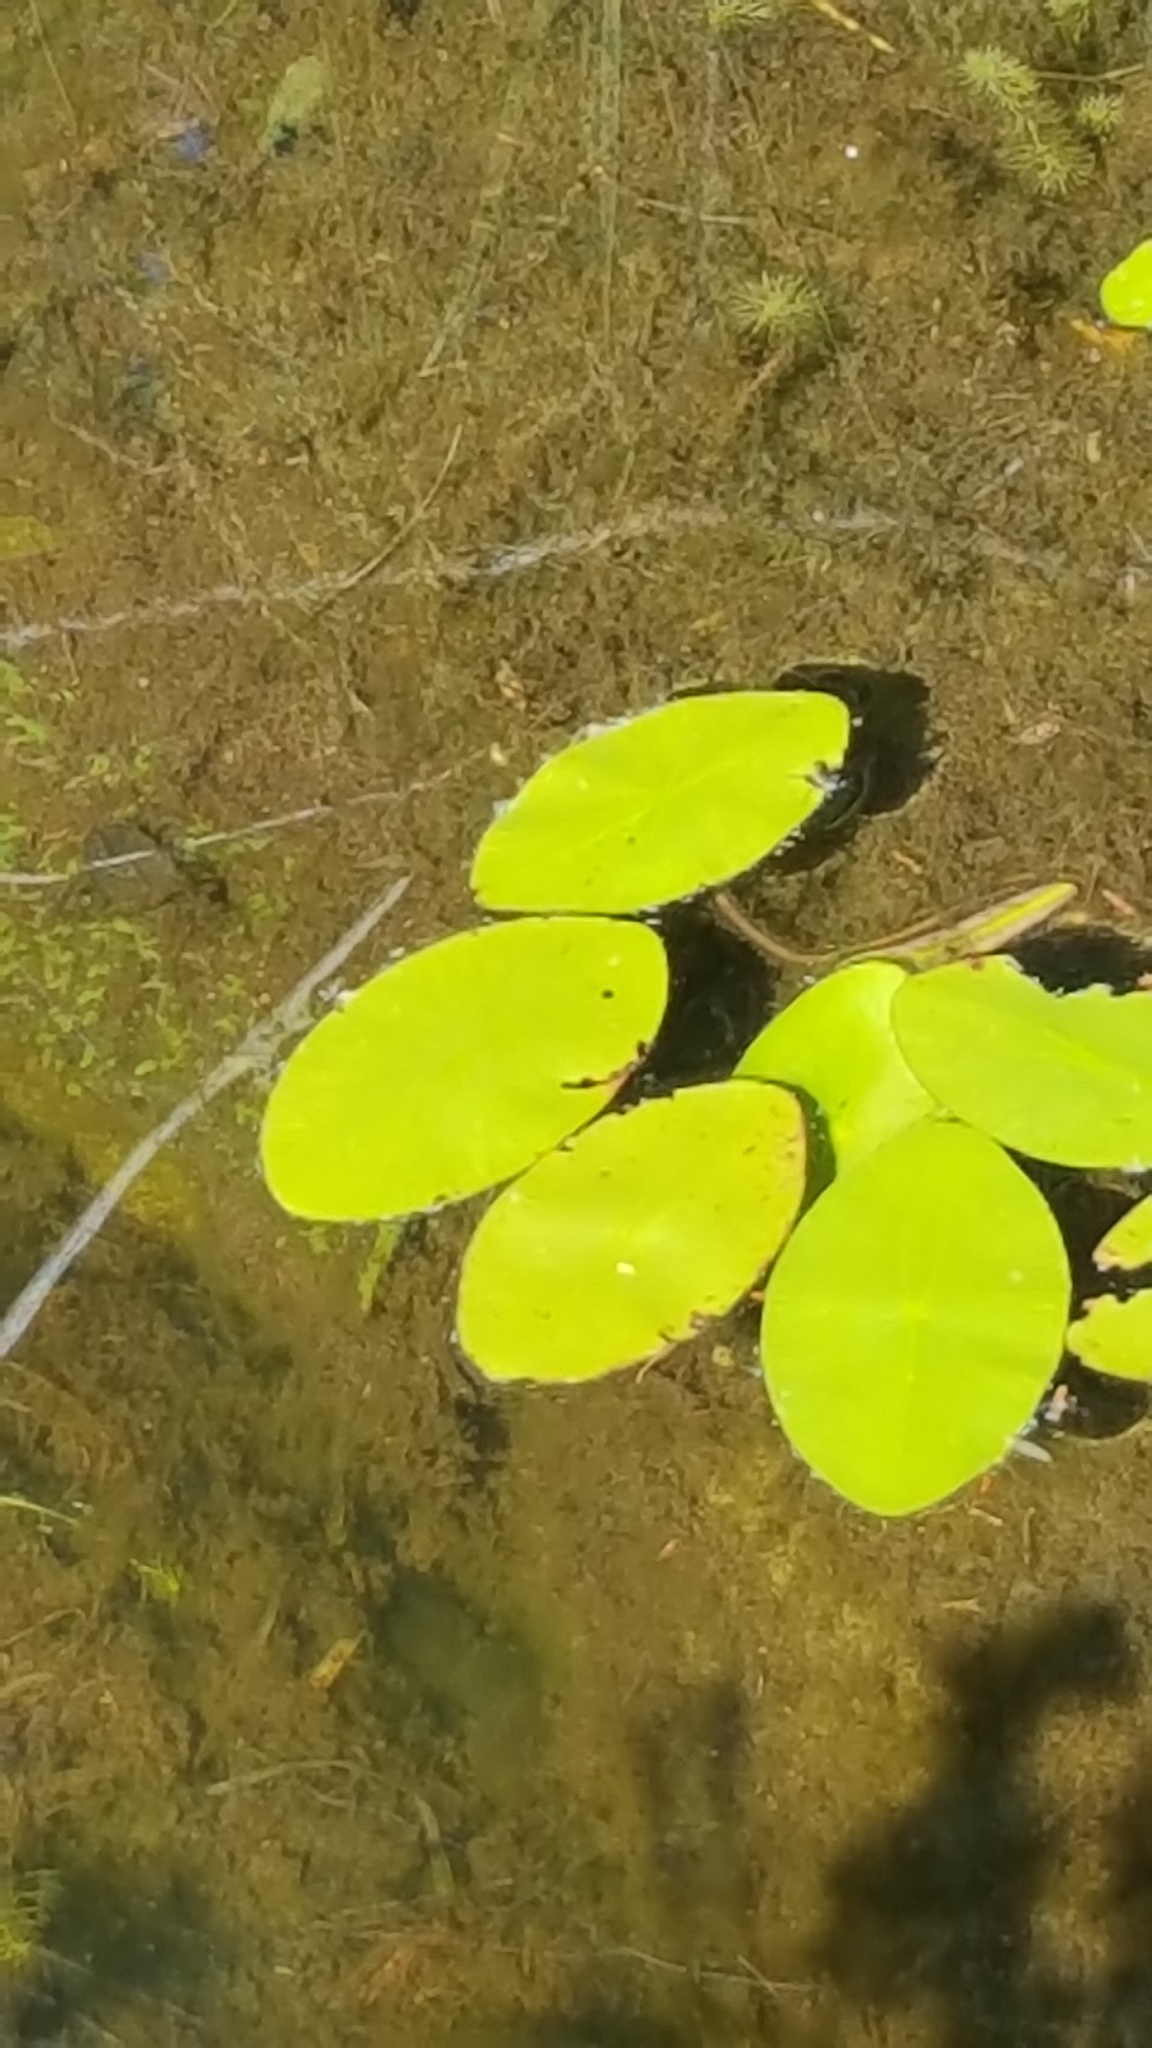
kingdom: Plantae
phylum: Tracheophyta
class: Magnoliopsida
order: Nymphaeales
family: Cabombaceae
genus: Brasenia
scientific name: Brasenia schreberi
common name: Water-shield
